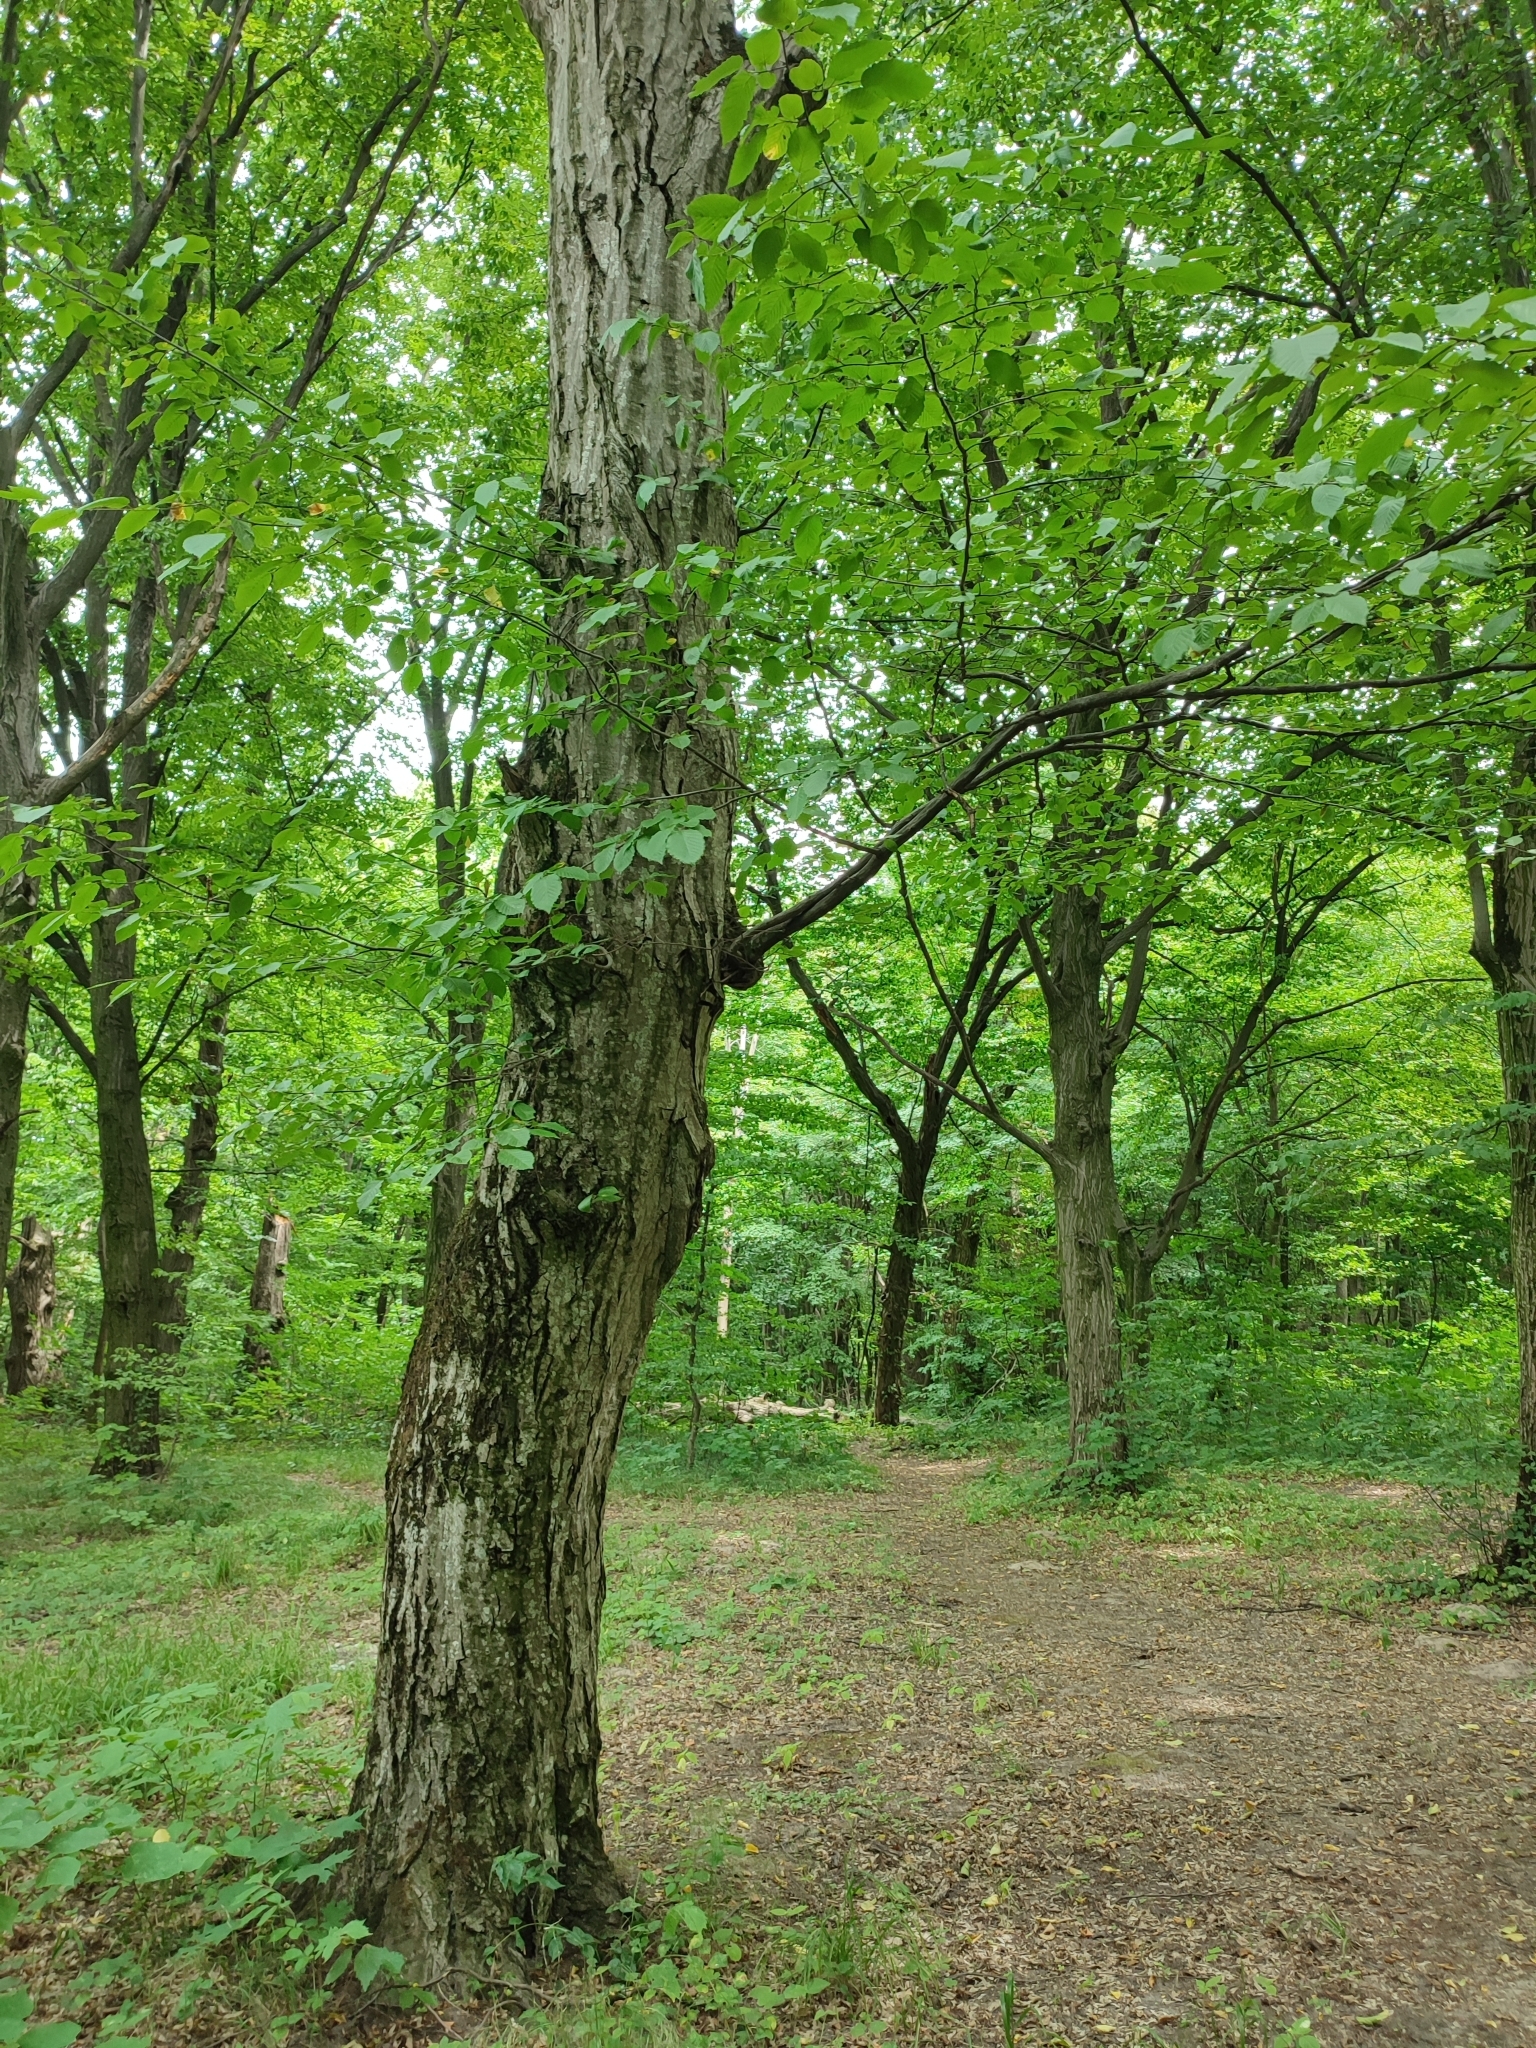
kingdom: Plantae
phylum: Tracheophyta
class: Magnoliopsida
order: Fagales
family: Betulaceae
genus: Carpinus
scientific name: Carpinus betulus
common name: Hornbeam
